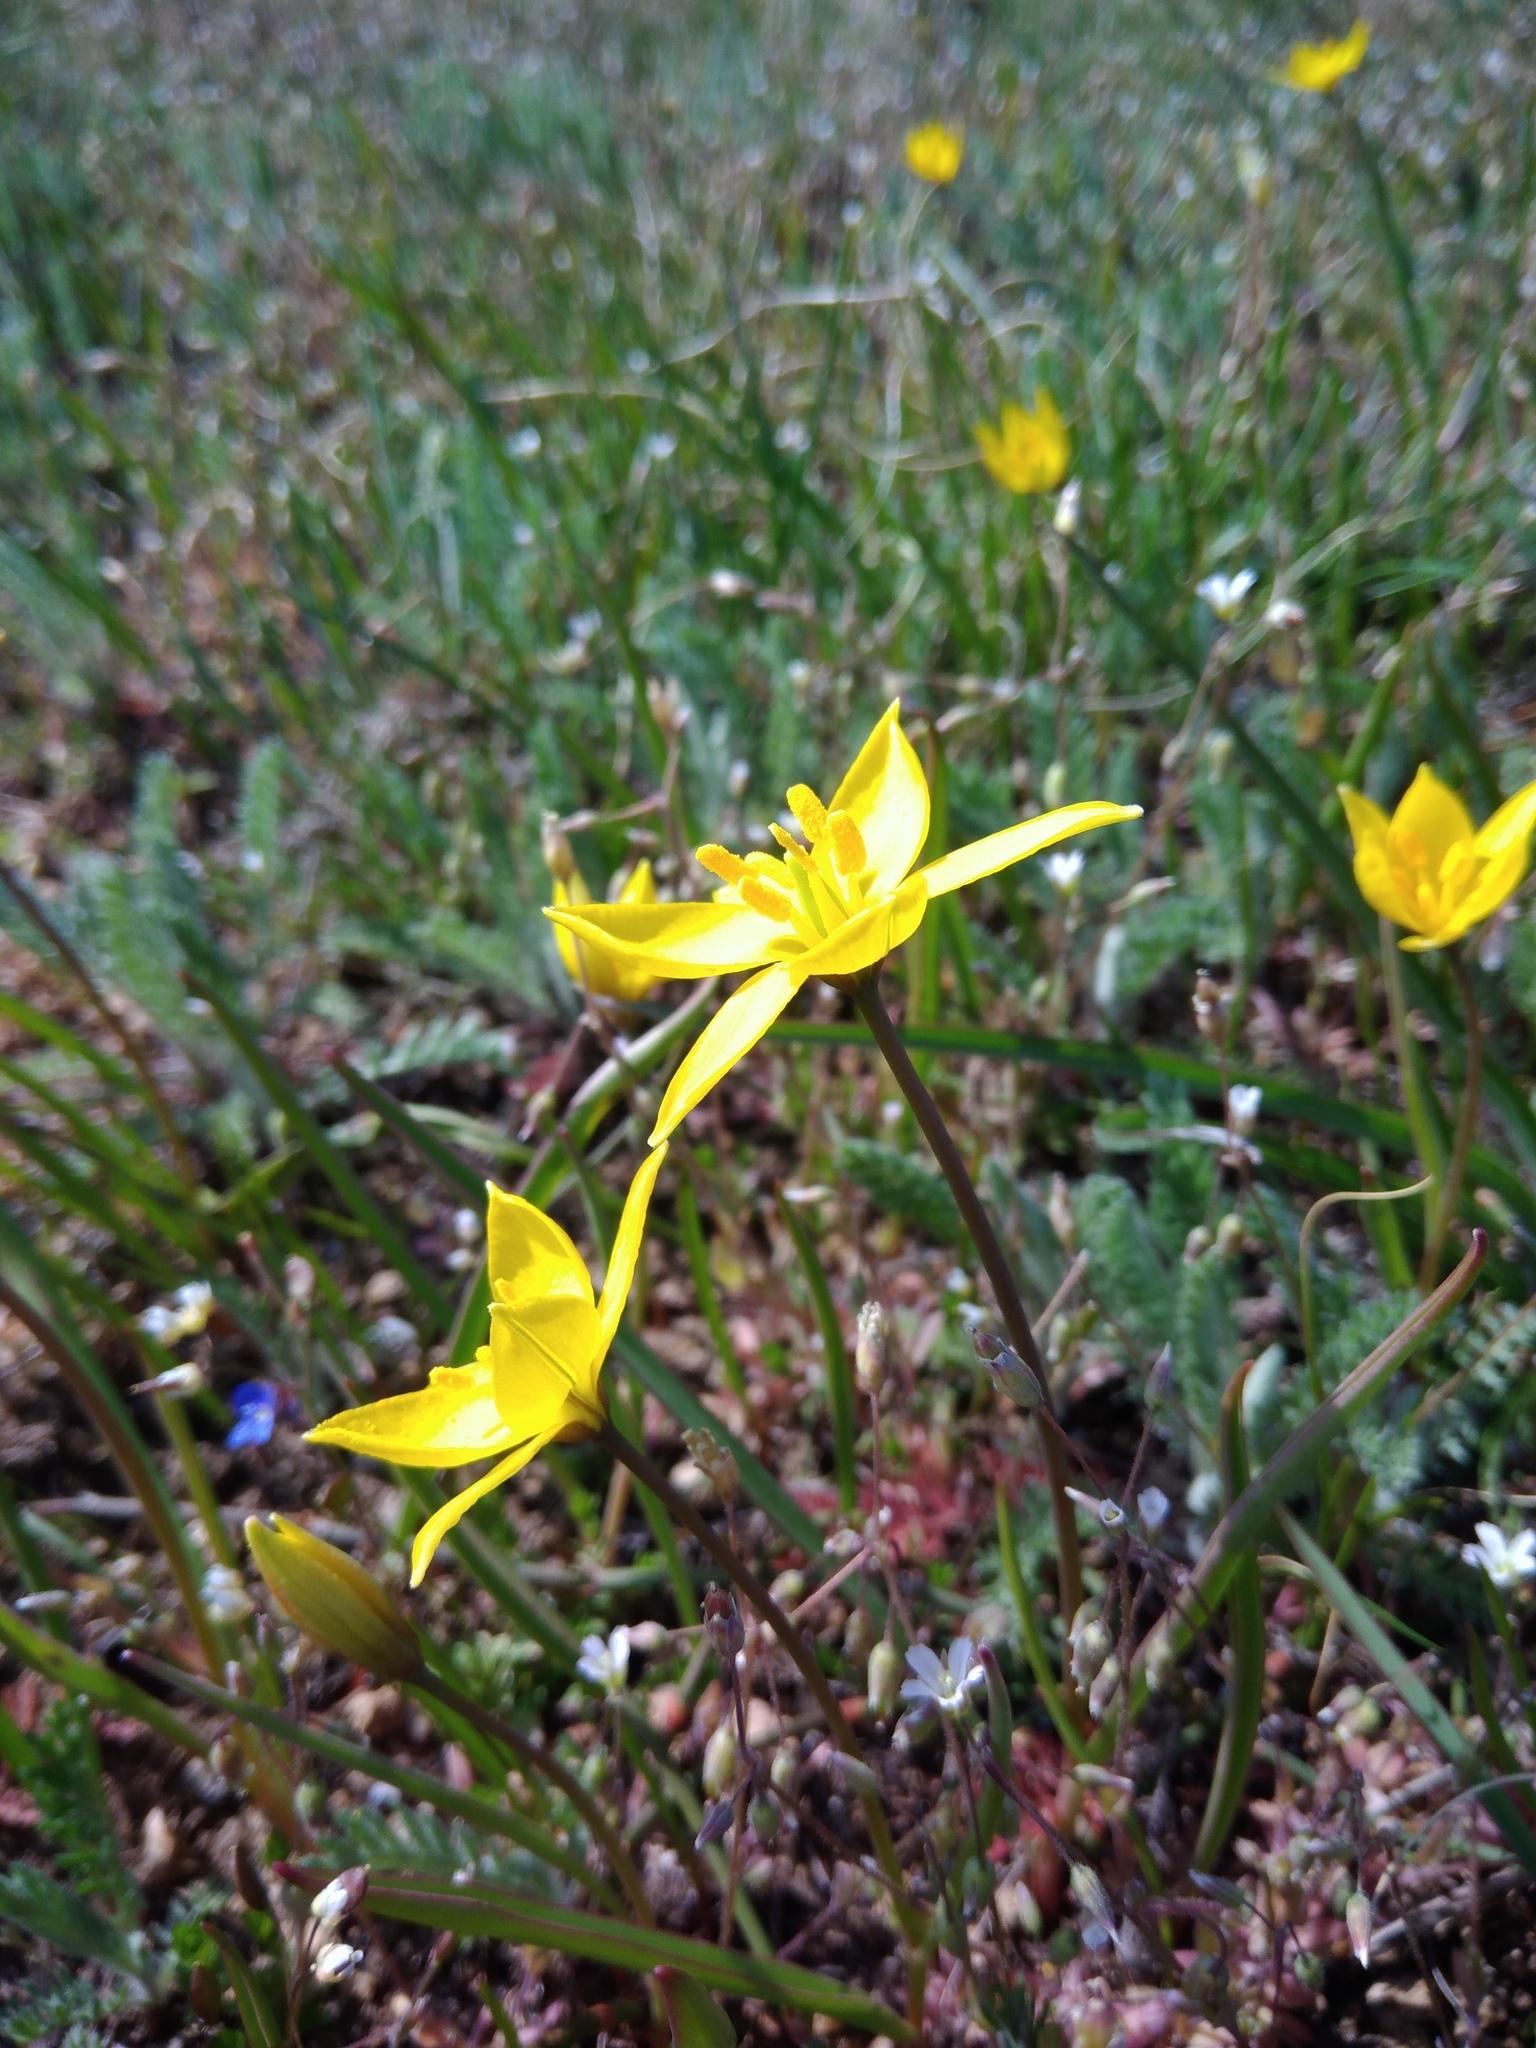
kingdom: Plantae
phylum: Tracheophyta
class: Liliopsida
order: Liliales
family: Liliaceae
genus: Tulipa
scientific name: Tulipa sylvestris
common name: Wild tulip
